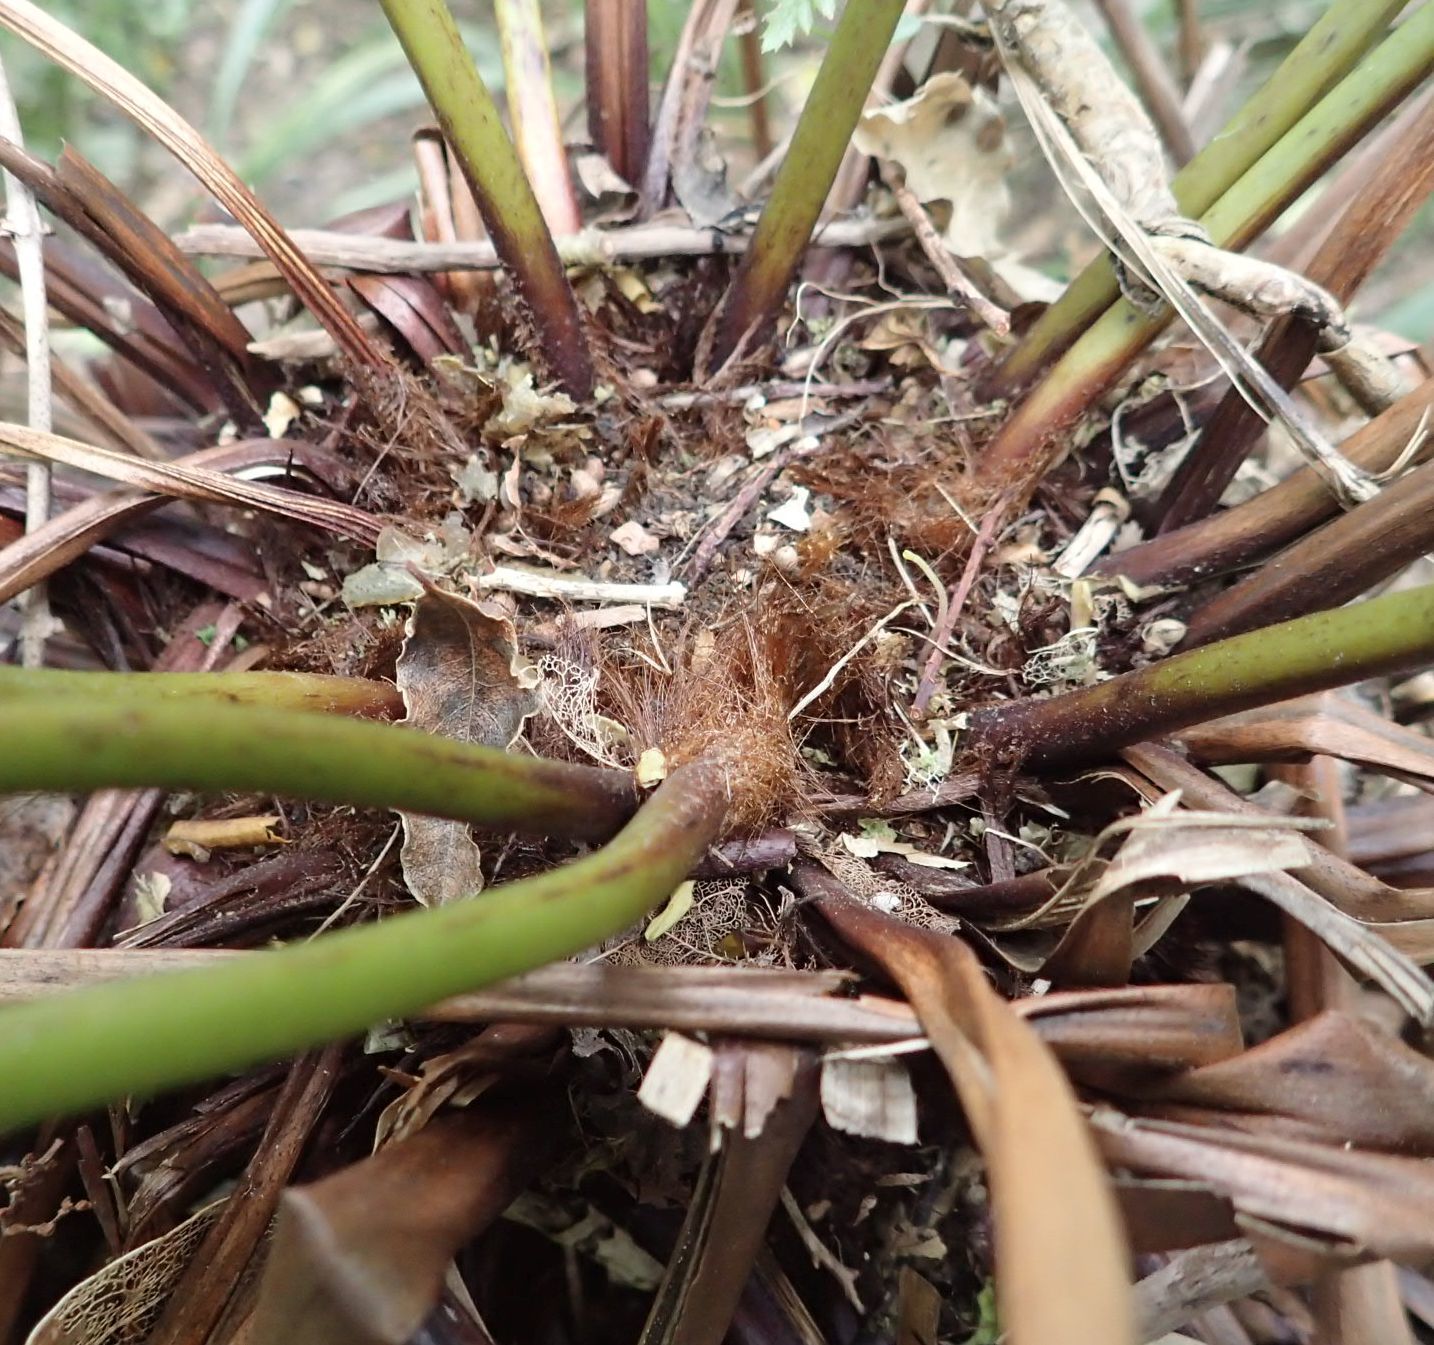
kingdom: Plantae
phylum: Tracheophyta
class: Polypodiopsida
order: Cyatheales
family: Dicksoniaceae
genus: Dicksonia
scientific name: Dicksonia fibrosa
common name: Golden tree fern
